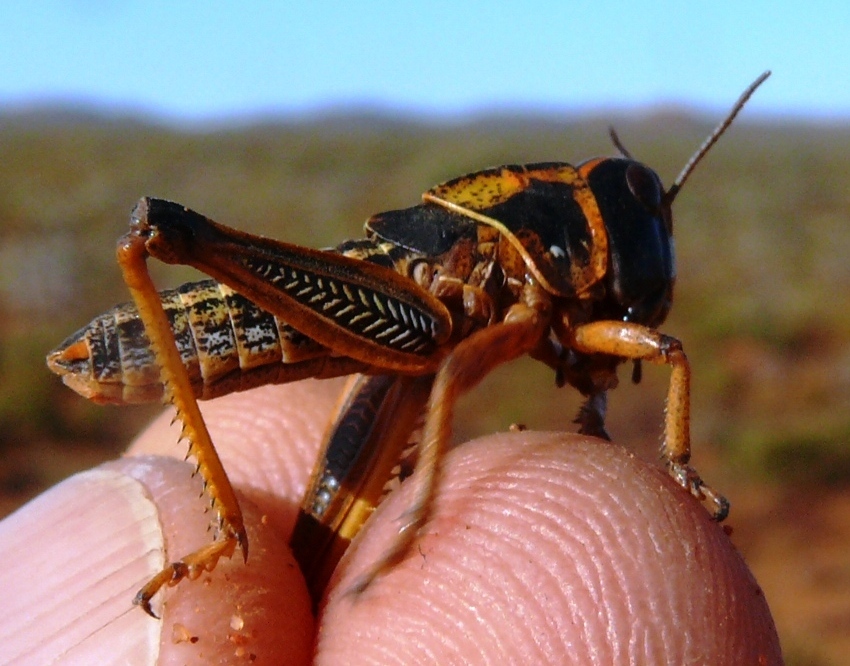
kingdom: Animalia
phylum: Arthropoda
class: Insecta
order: Orthoptera
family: Acrididae
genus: Locustana
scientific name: Locustana pardalina
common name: Brown locust
